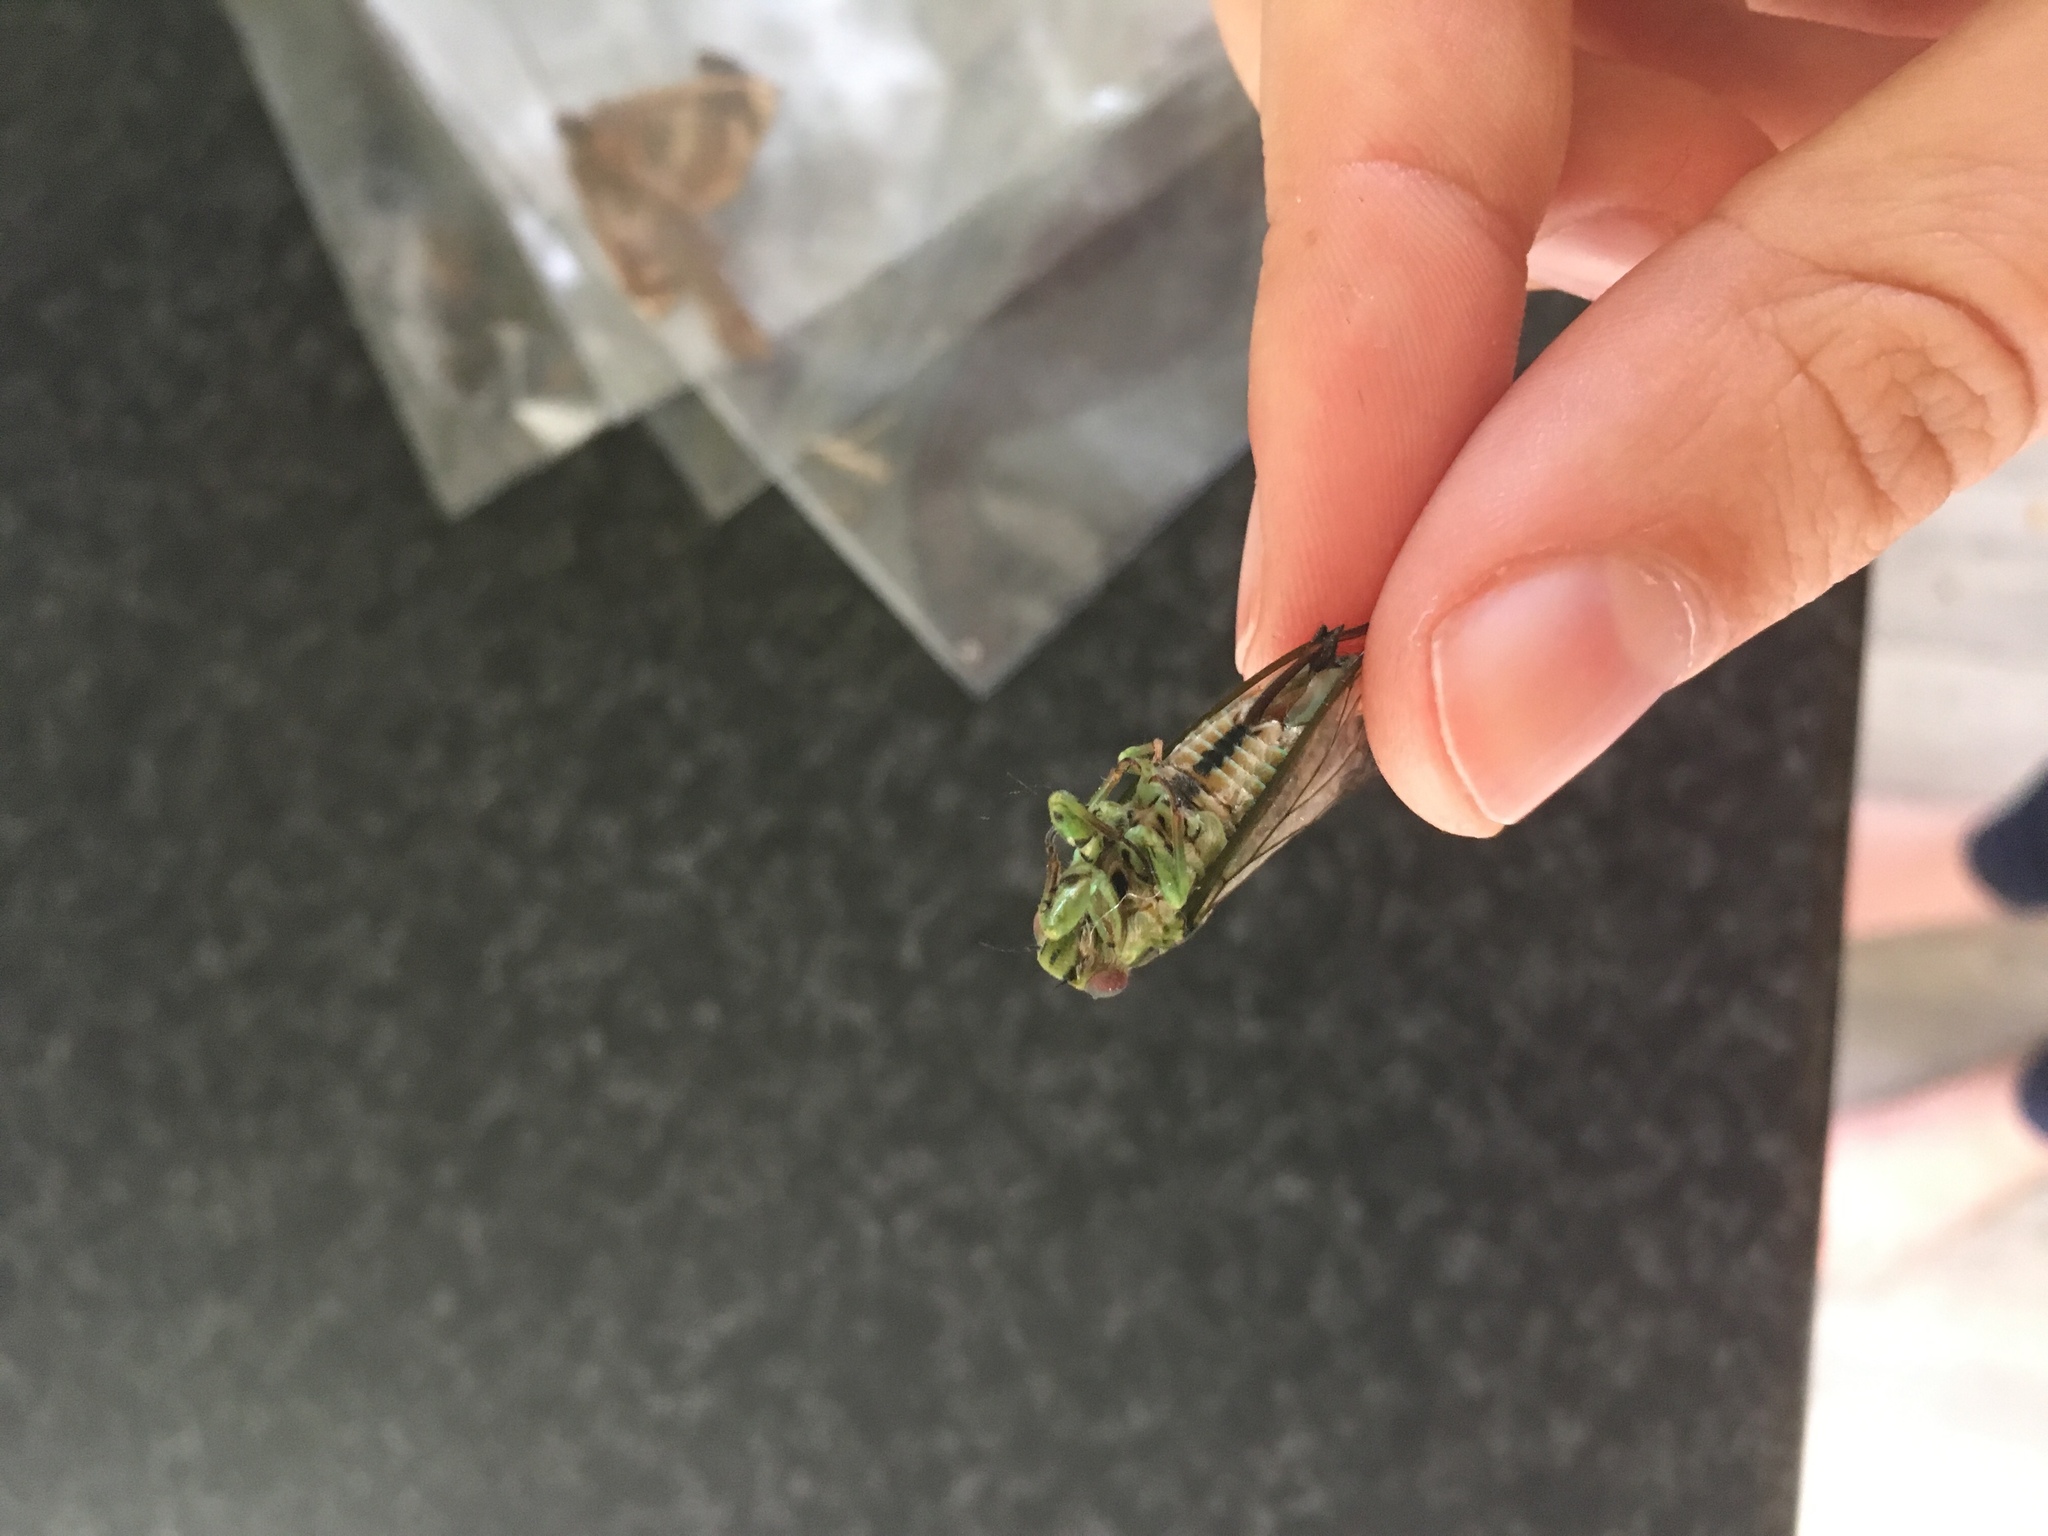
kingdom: Animalia
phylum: Arthropoda
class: Insecta
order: Hemiptera
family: Cicadidae
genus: Kikihia
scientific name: Kikihia scutellaris
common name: Lesser bronze cicada
